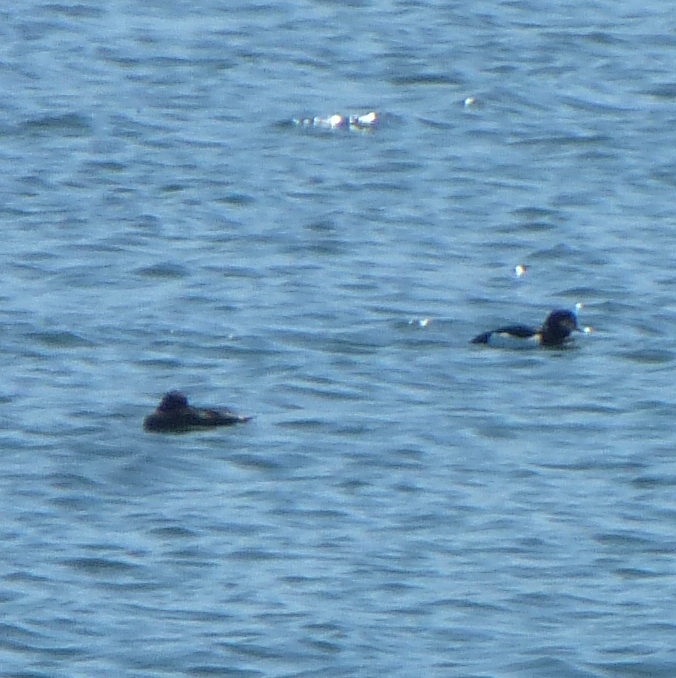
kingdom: Animalia
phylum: Chordata
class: Aves
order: Anseriformes
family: Anatidae
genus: Aythya
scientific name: Aythya fuligula
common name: Tufted duck
